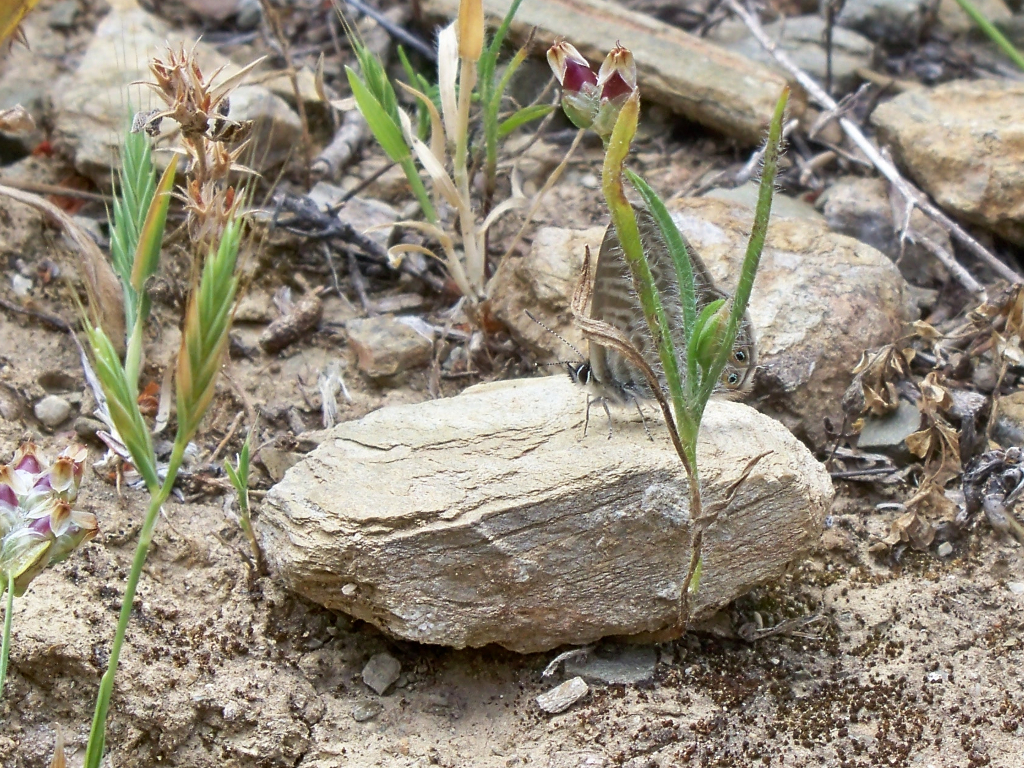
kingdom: Animalia
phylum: Arthropoda
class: Insecta
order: Lepidoptera
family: Lycaenidae
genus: Leptotes
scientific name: Leptotes pirithous
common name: Lang's short-tailed blue
